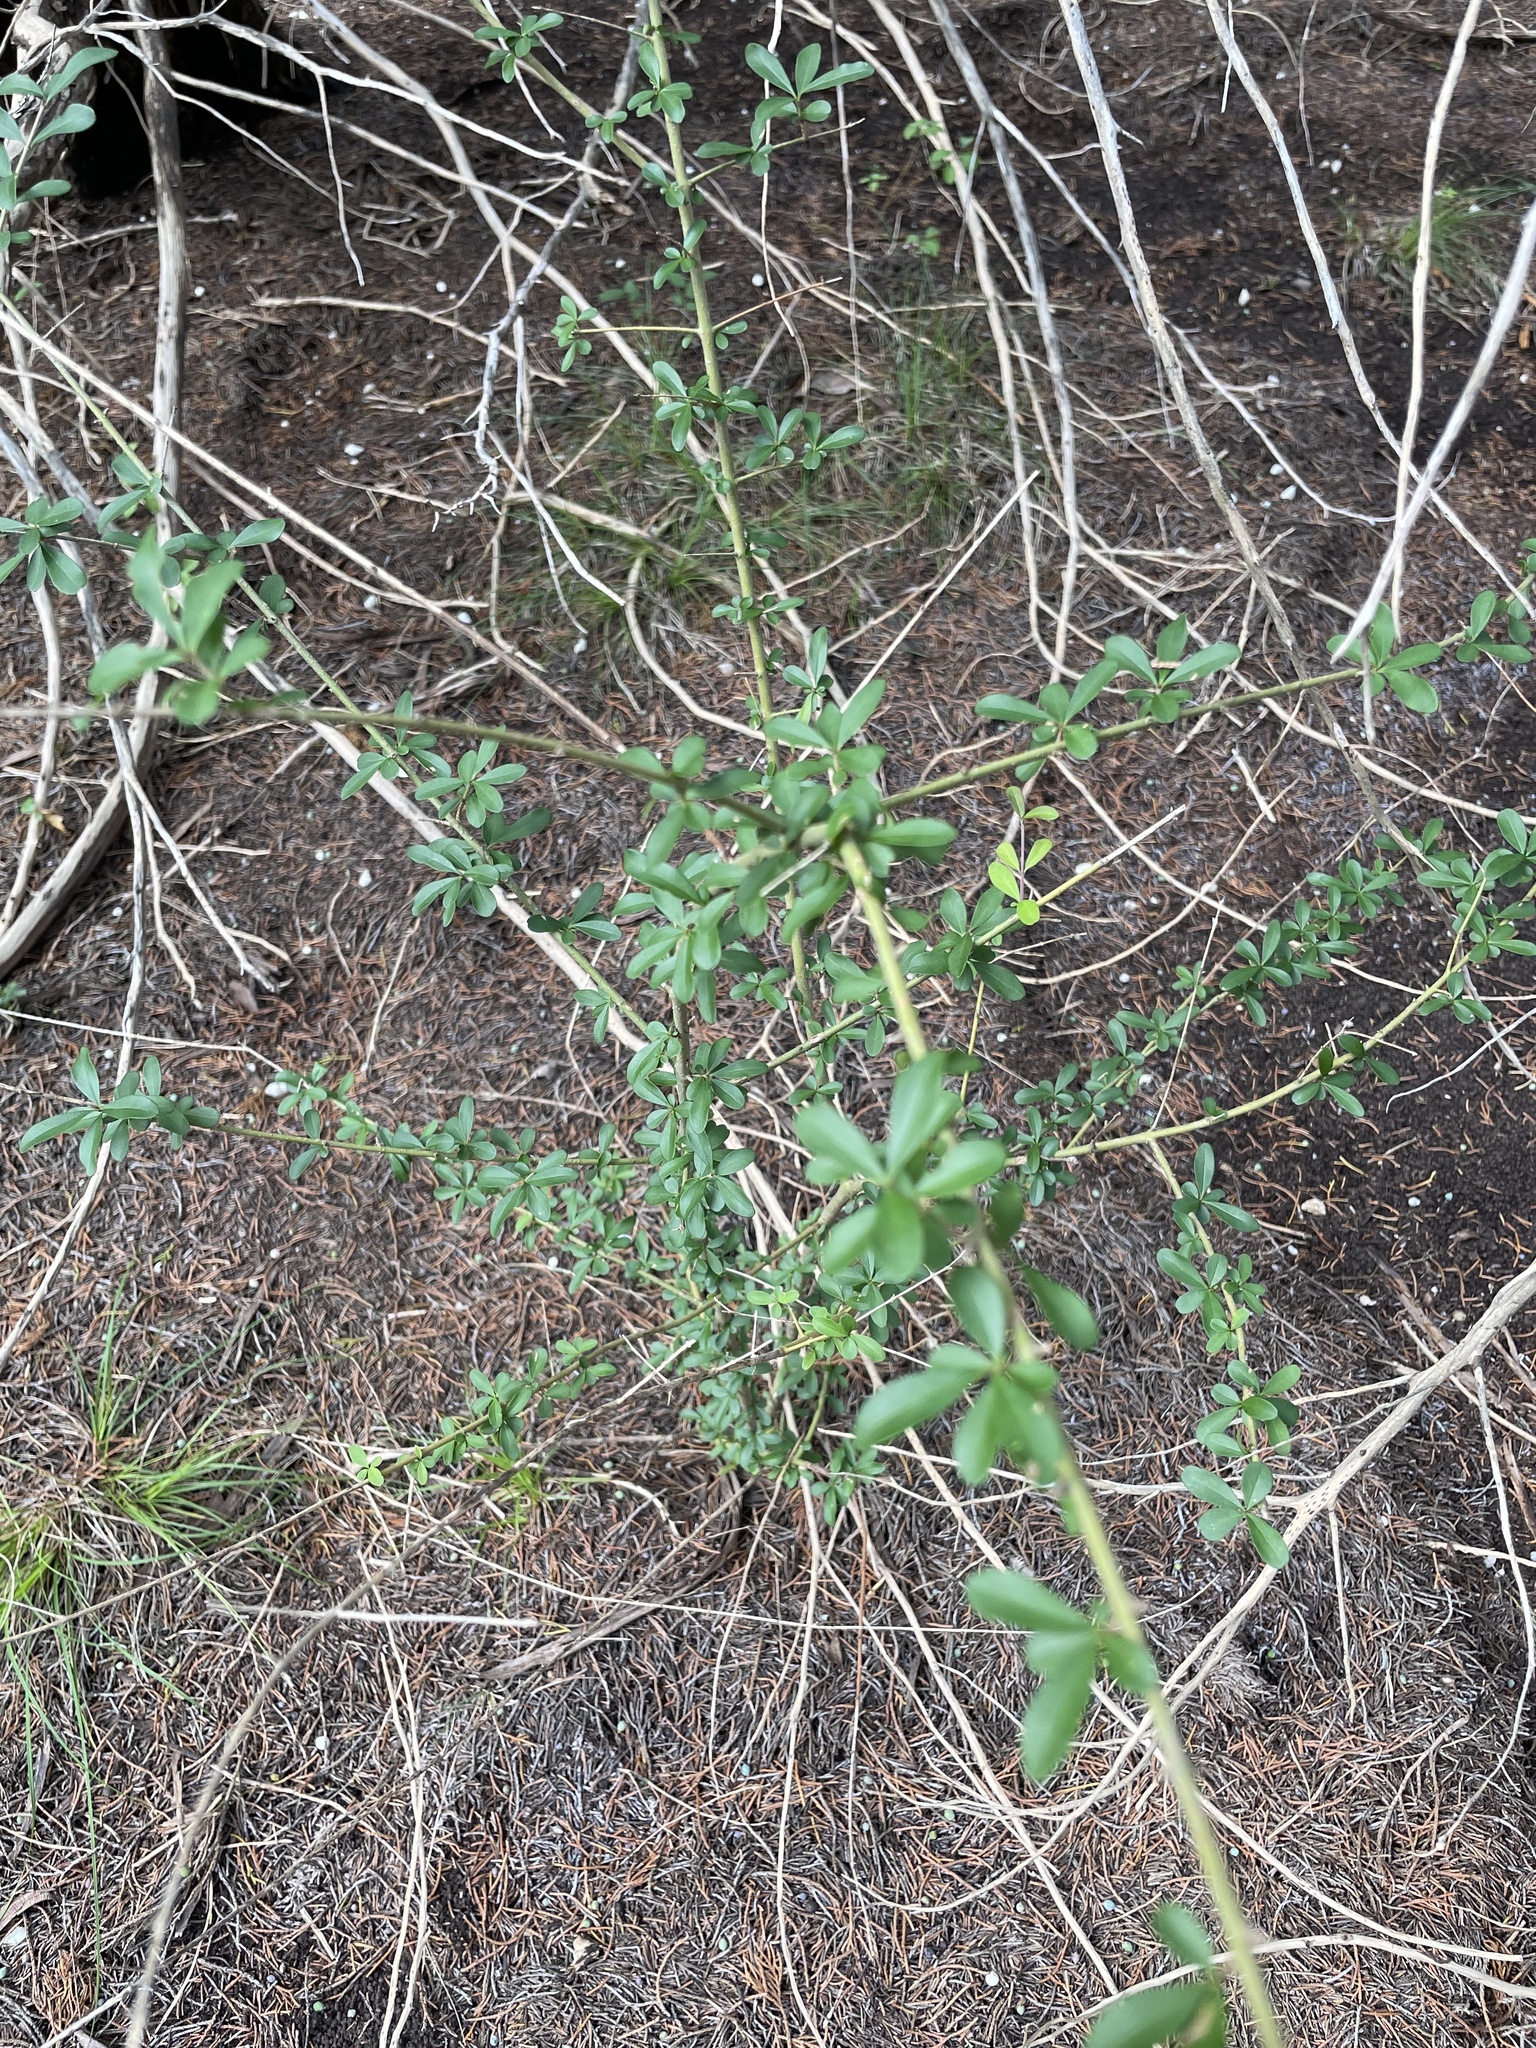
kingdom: Plantae
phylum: Tracheophyta
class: Magnoliopsida
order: Lamiales
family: Oleaceae
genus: Ligustrum
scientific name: Ligustrum quihoui
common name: Waxyleaf privet
